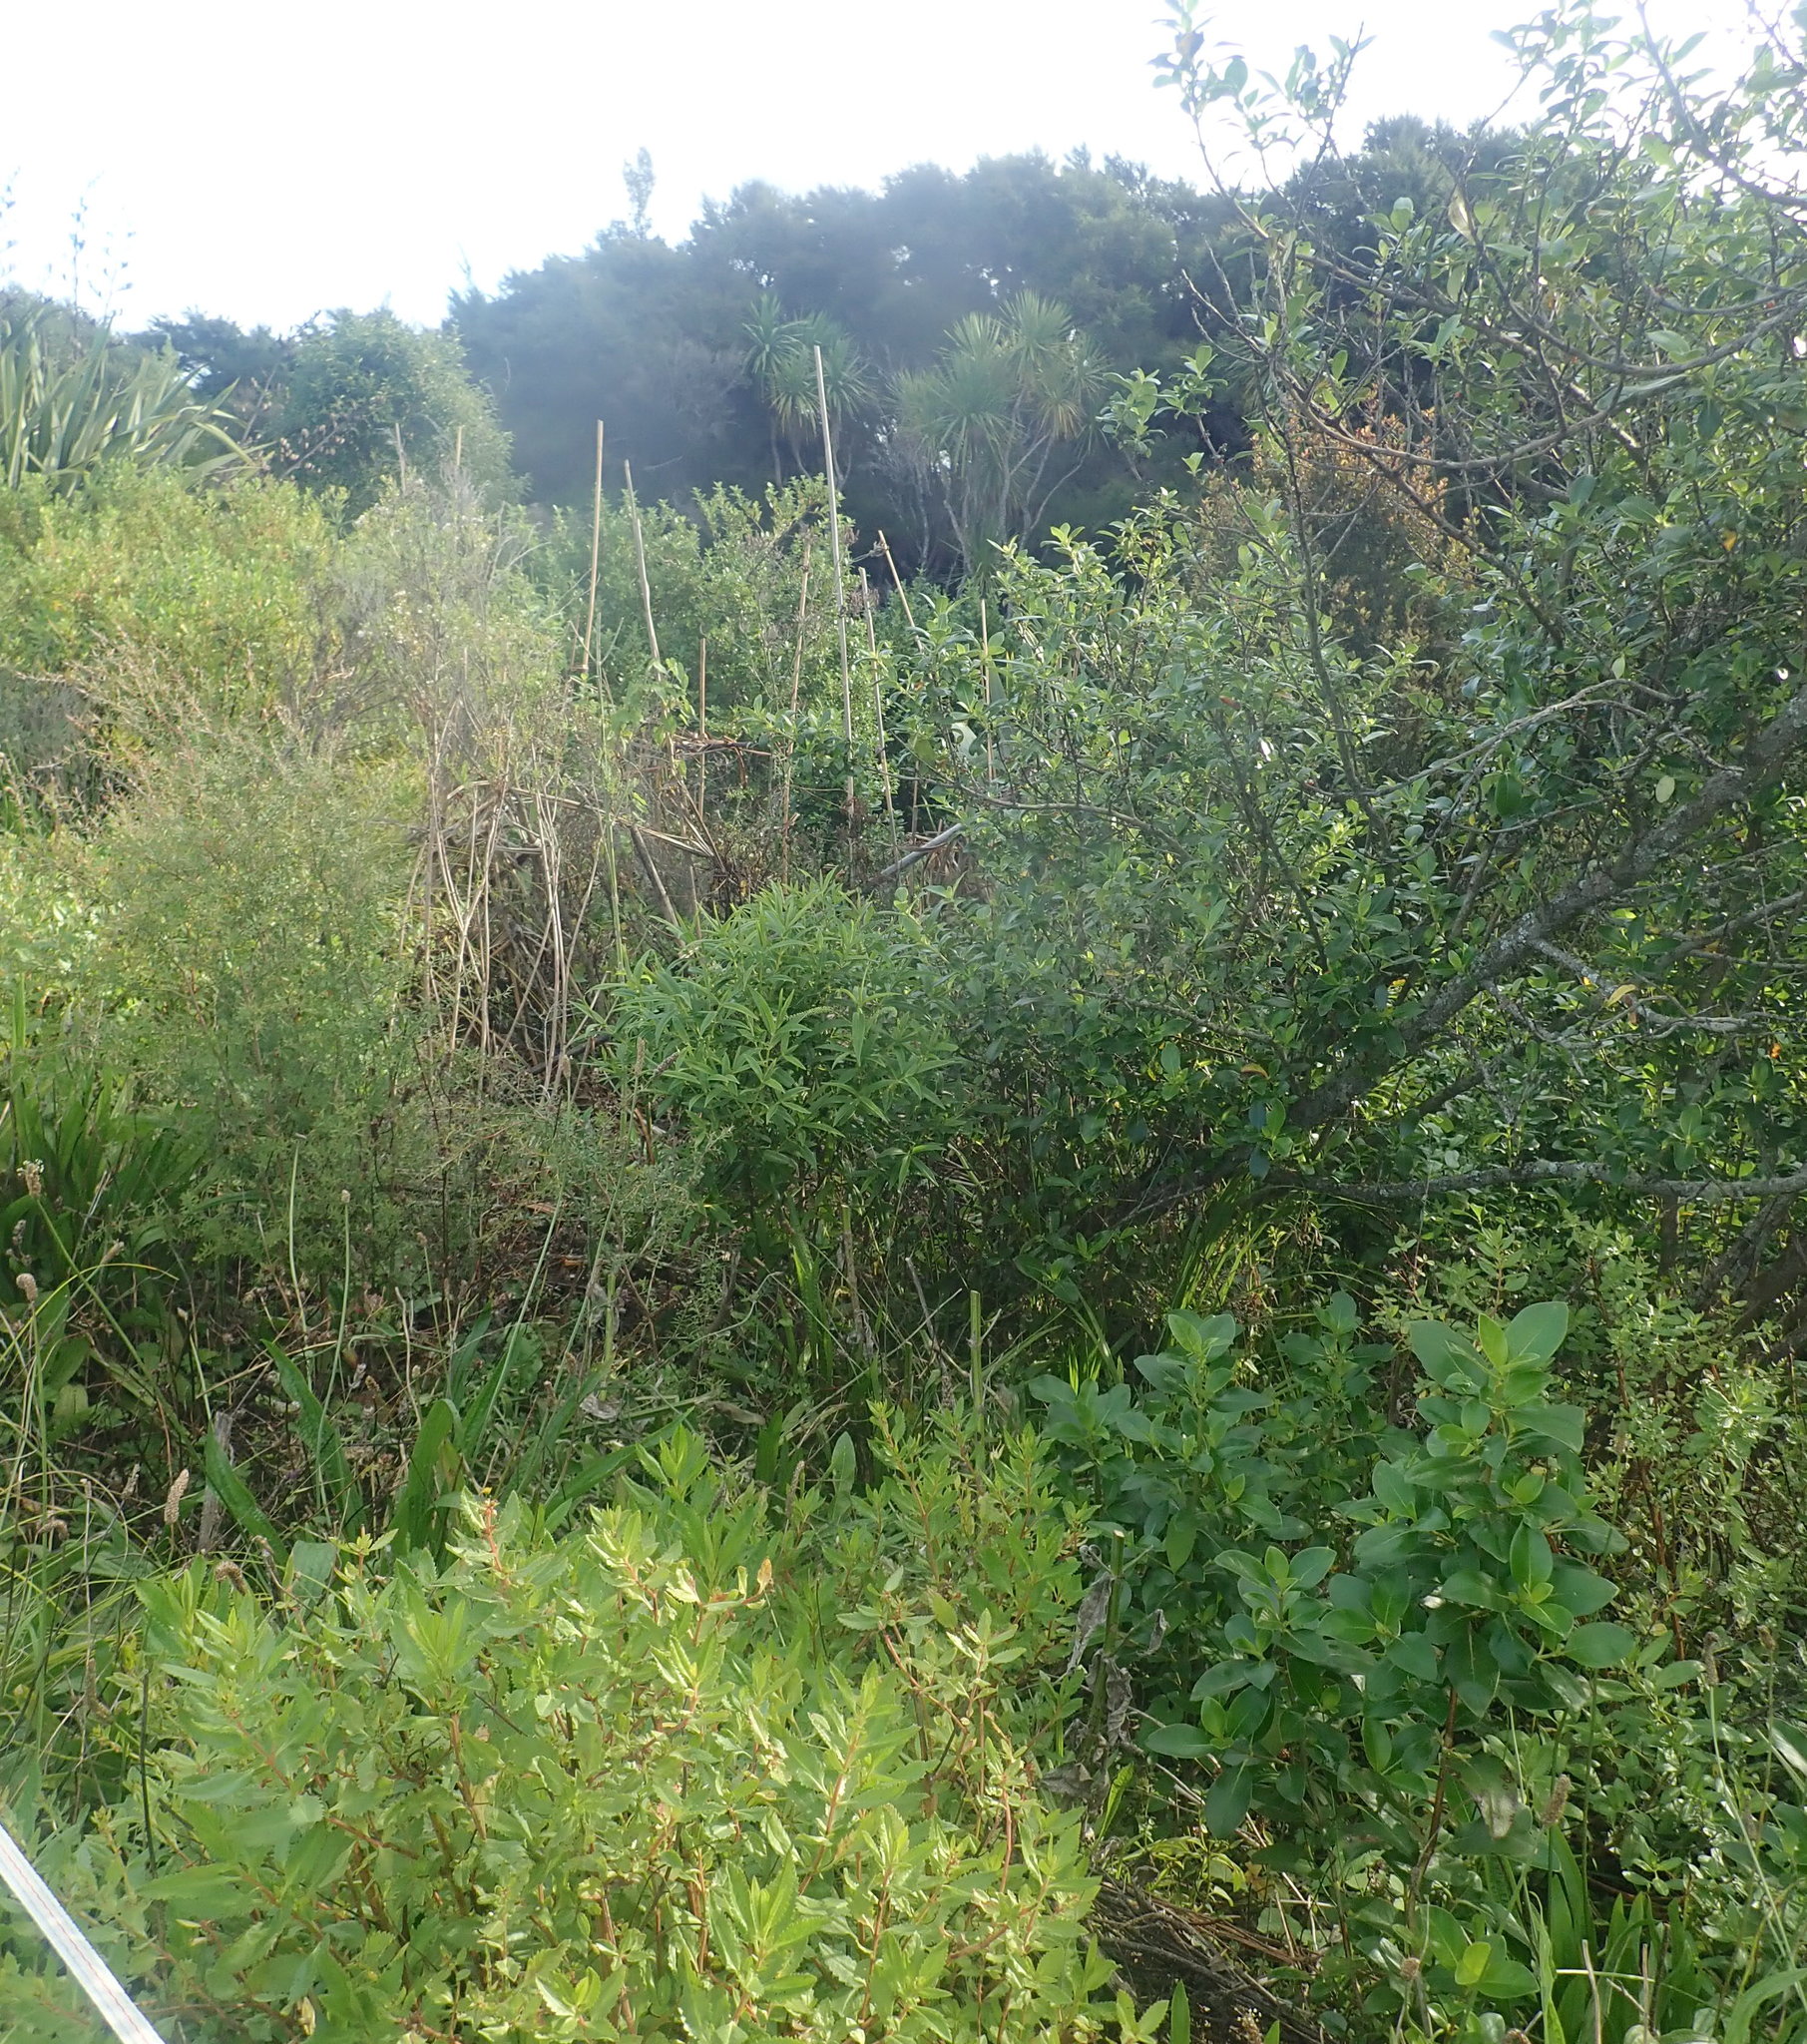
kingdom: Plantae
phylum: Tracheophyta
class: Magnoliopsida
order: Gentianales
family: Rubiaceae
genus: Coprosma
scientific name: Coprosma robusta
